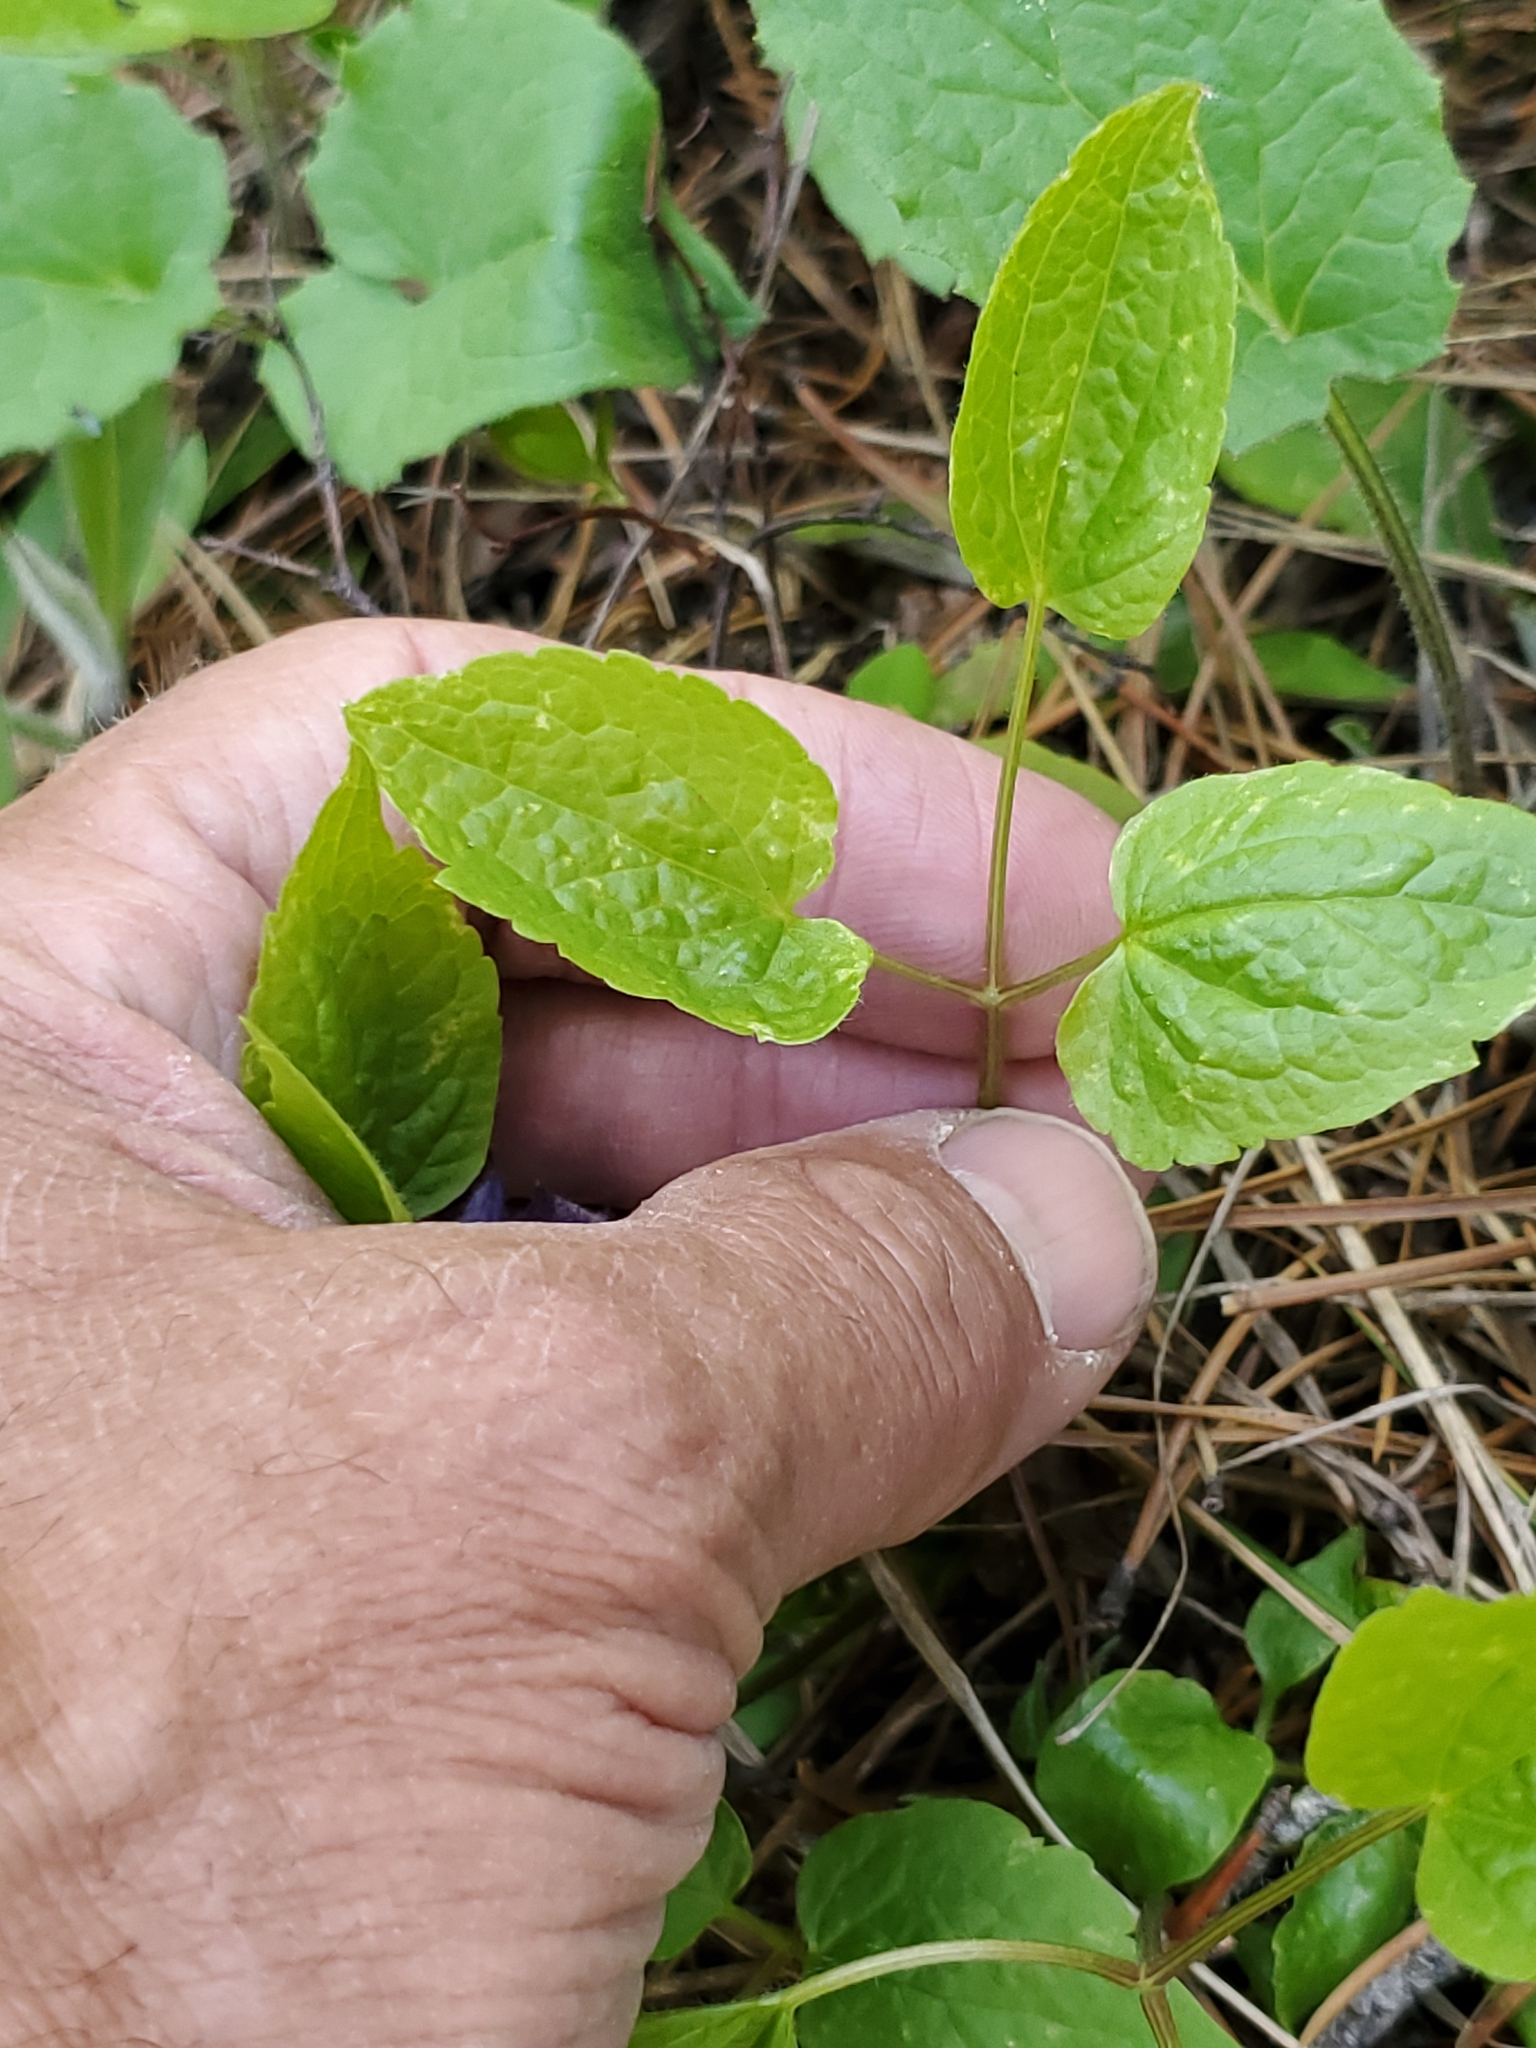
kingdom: Plantae
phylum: Tracheophyta
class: Magnoliopsida
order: Ranunculales
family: Ranunculaceae
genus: Clematis
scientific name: Clematis occidentalis
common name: Purple clematis
